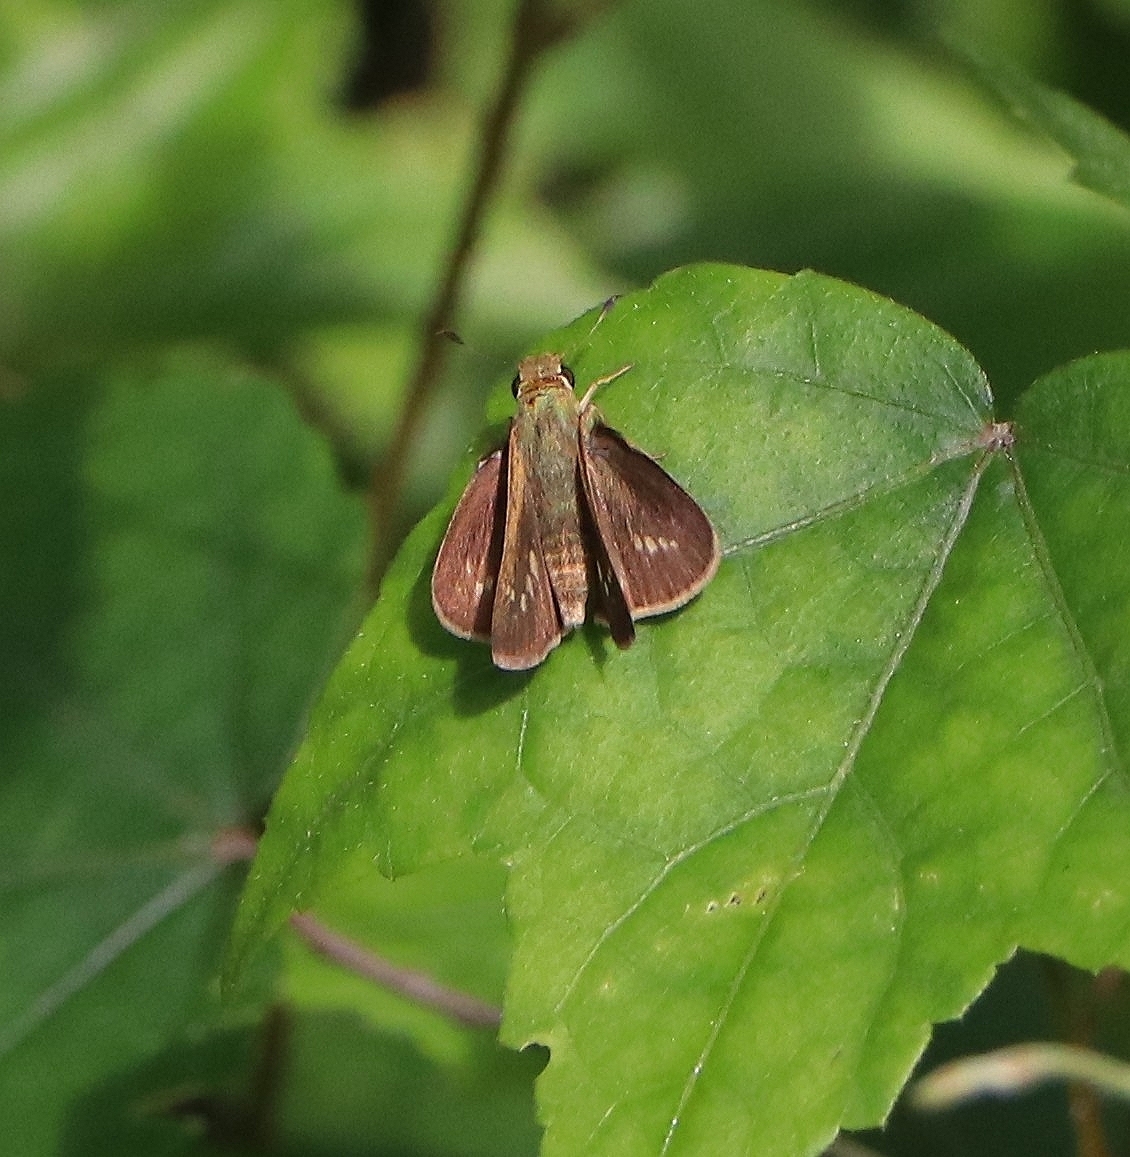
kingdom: Animalia
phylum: Arthropoda
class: Insecta
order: Lepidoptera
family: Hesperiidae
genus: Parnara
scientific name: Parnara naso
